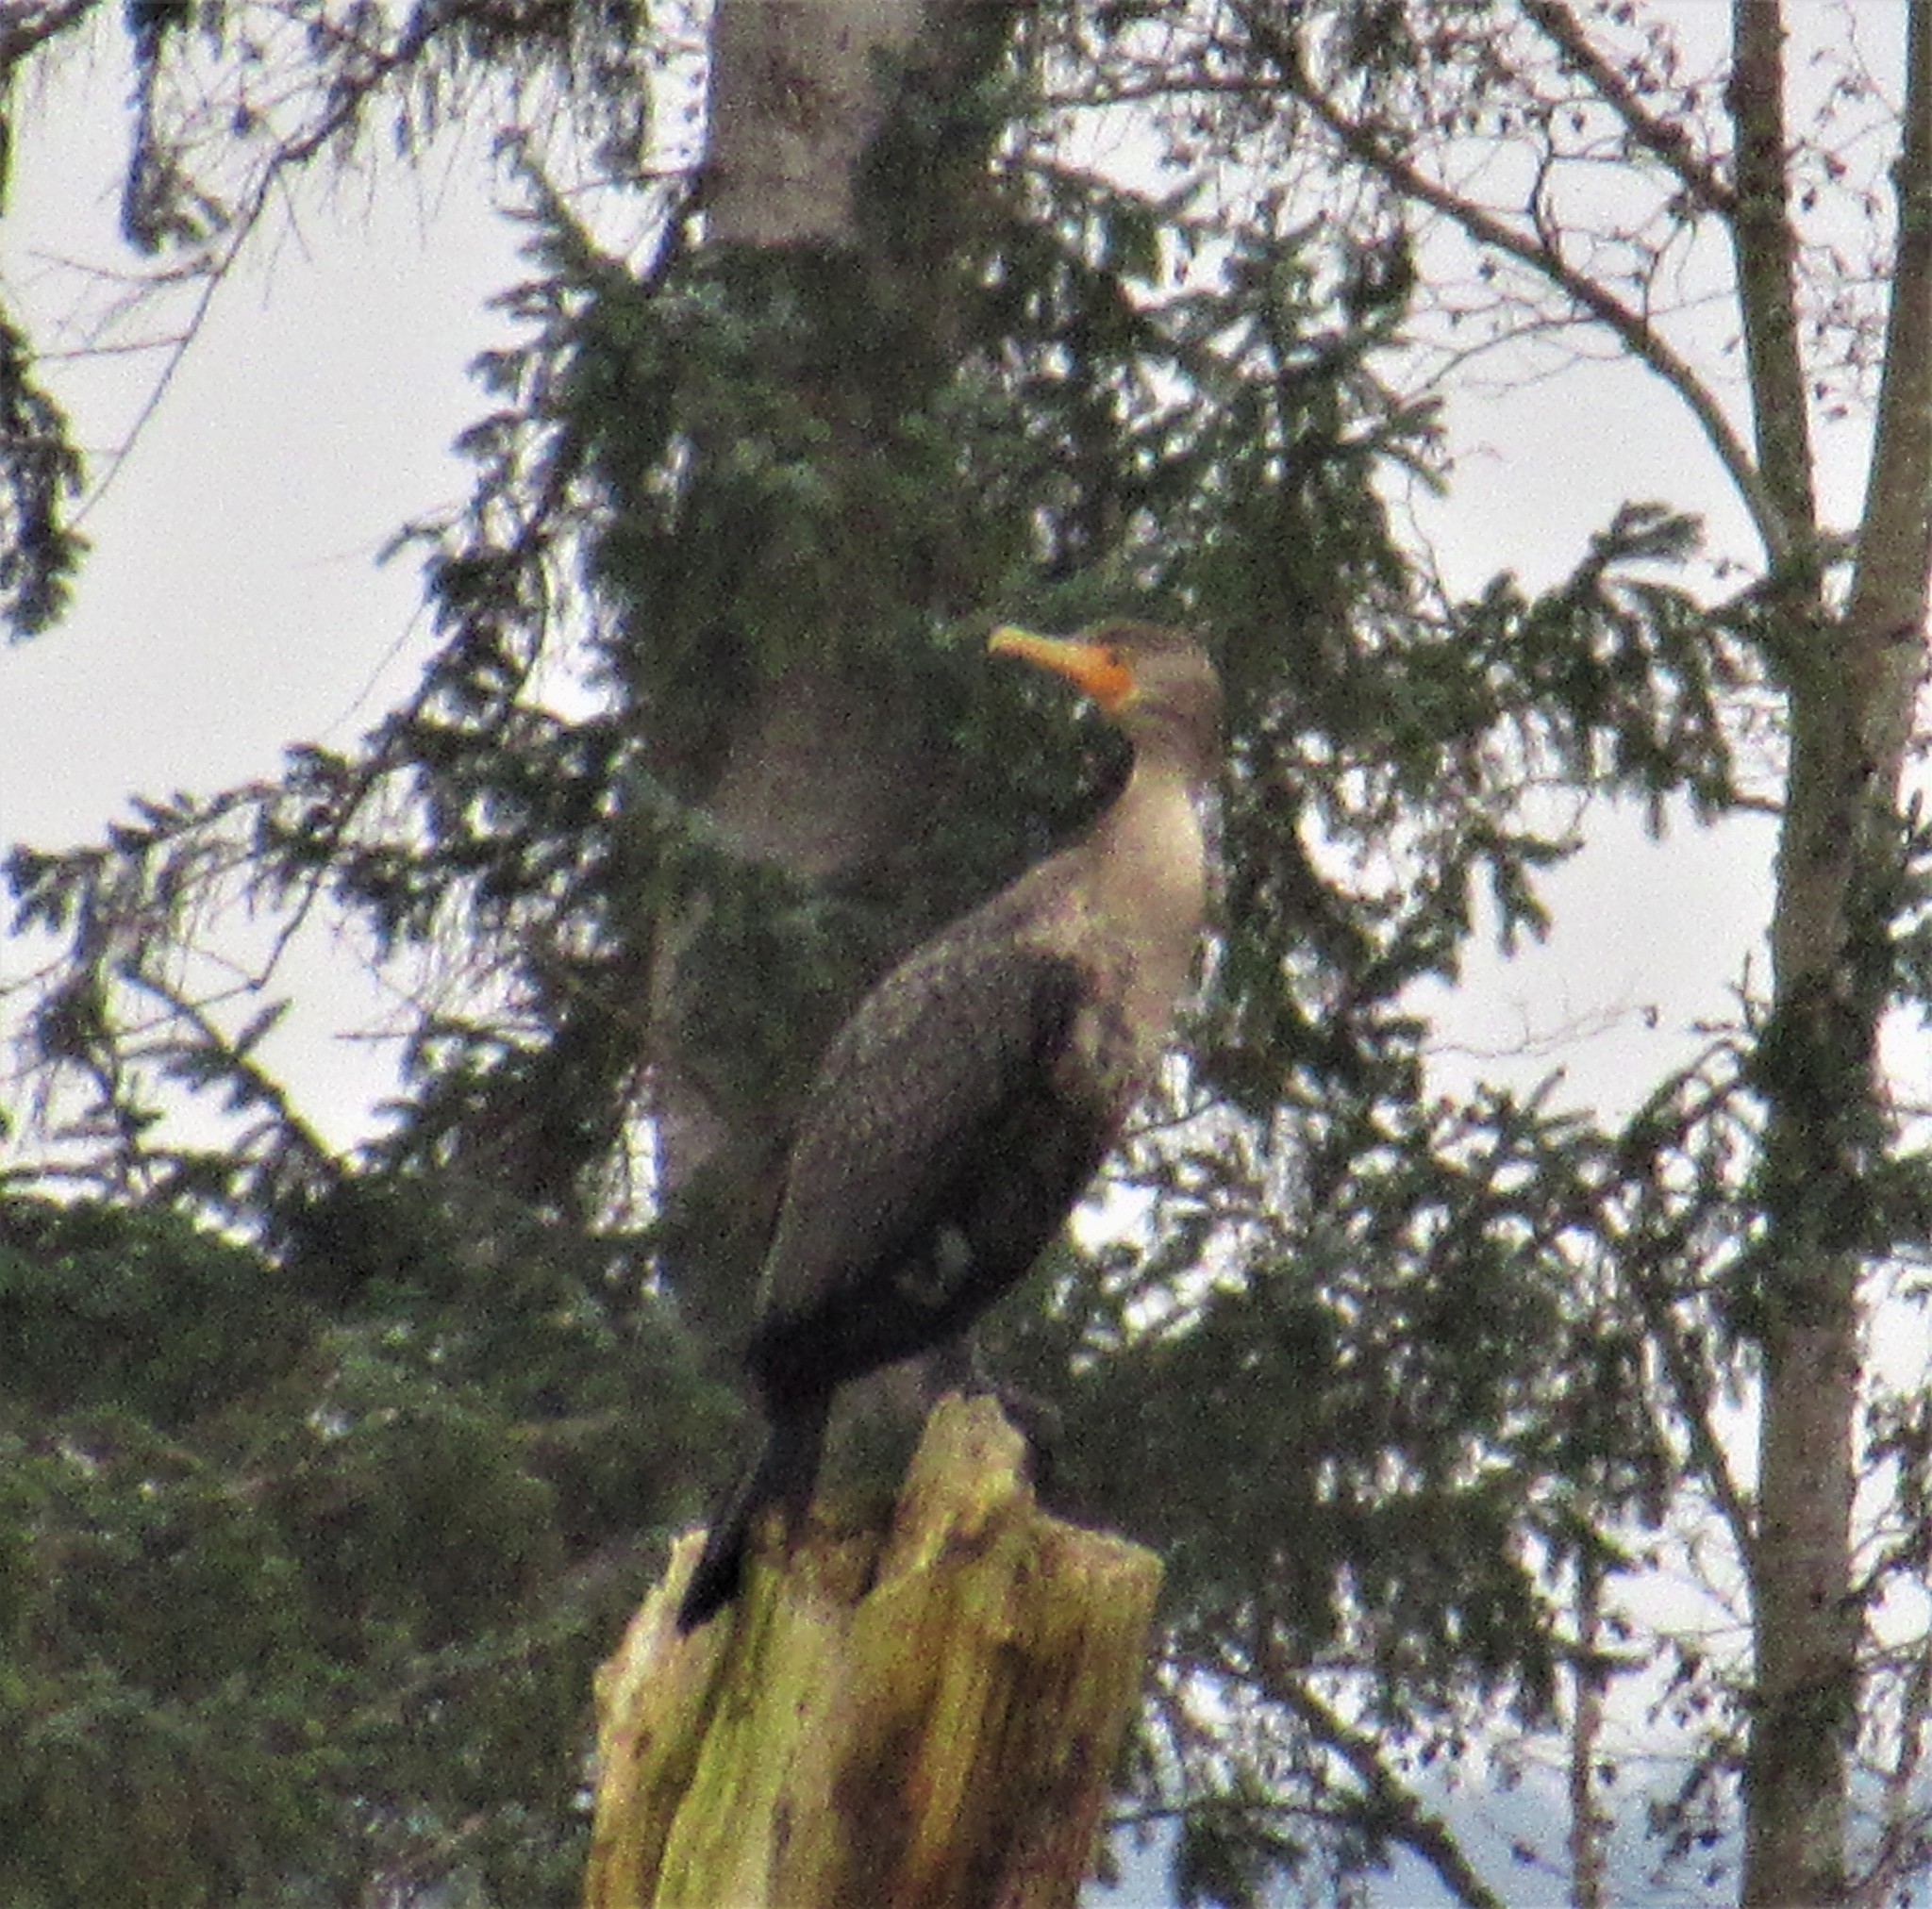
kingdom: Animalia
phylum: Chordata
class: Aves
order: Suliformes
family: Phalacrocoracidae
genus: Phalacrocorax
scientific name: Phalacrocorax auritus
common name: Double-crested cormorant
